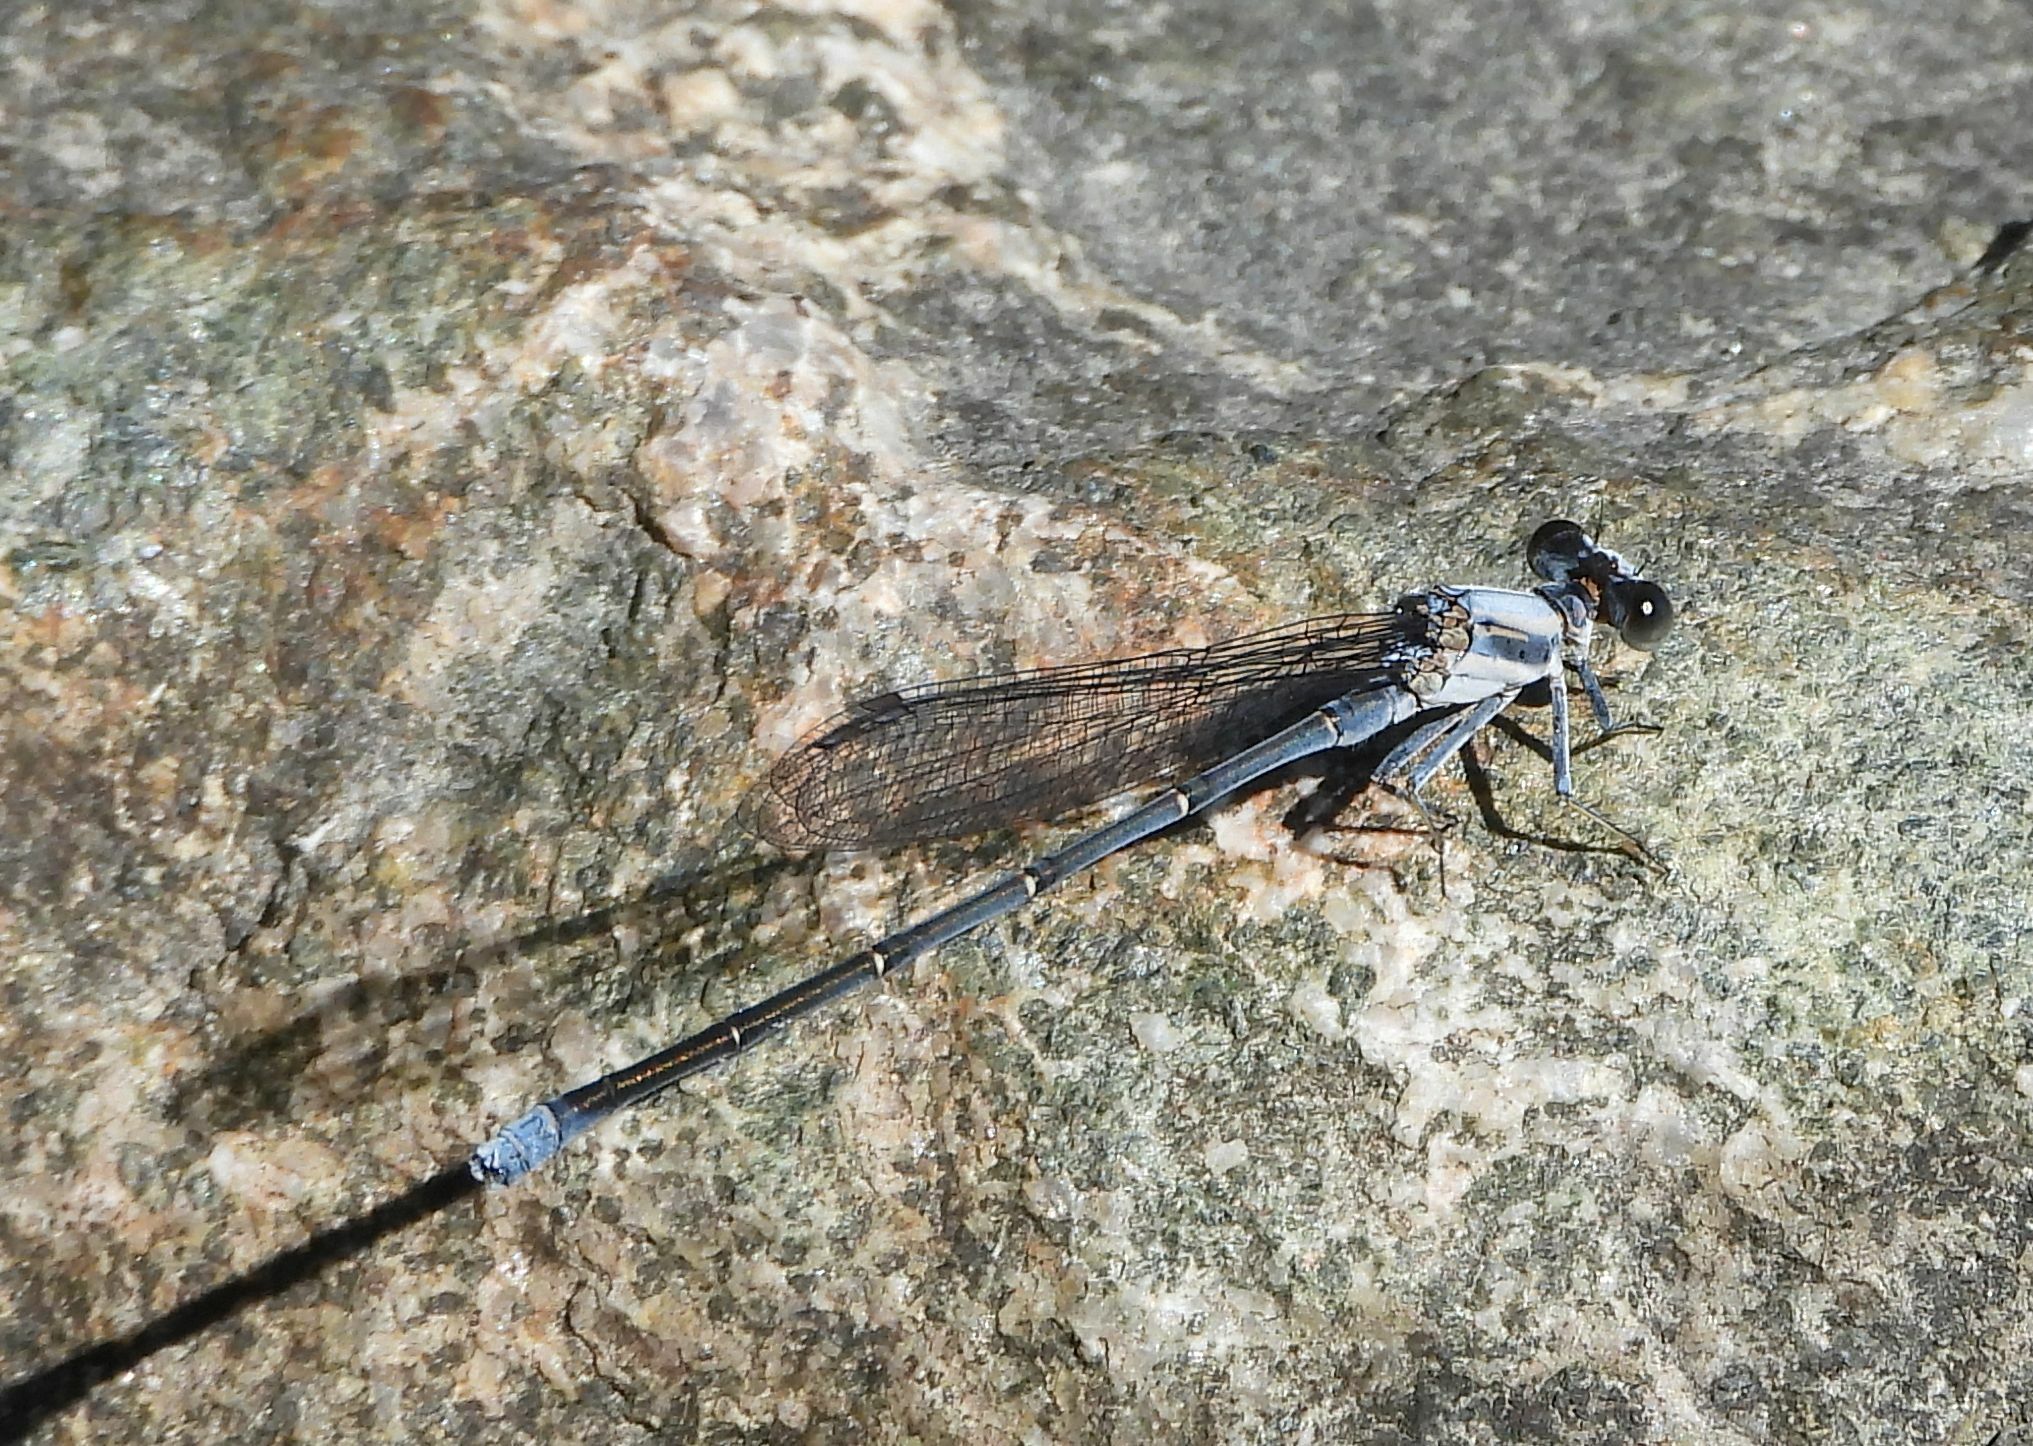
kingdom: Animalia
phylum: Arthropoda
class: Insecta
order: Odonata
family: Coenagrionidae
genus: Argia
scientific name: Argia moesta
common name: Powdered dancer
